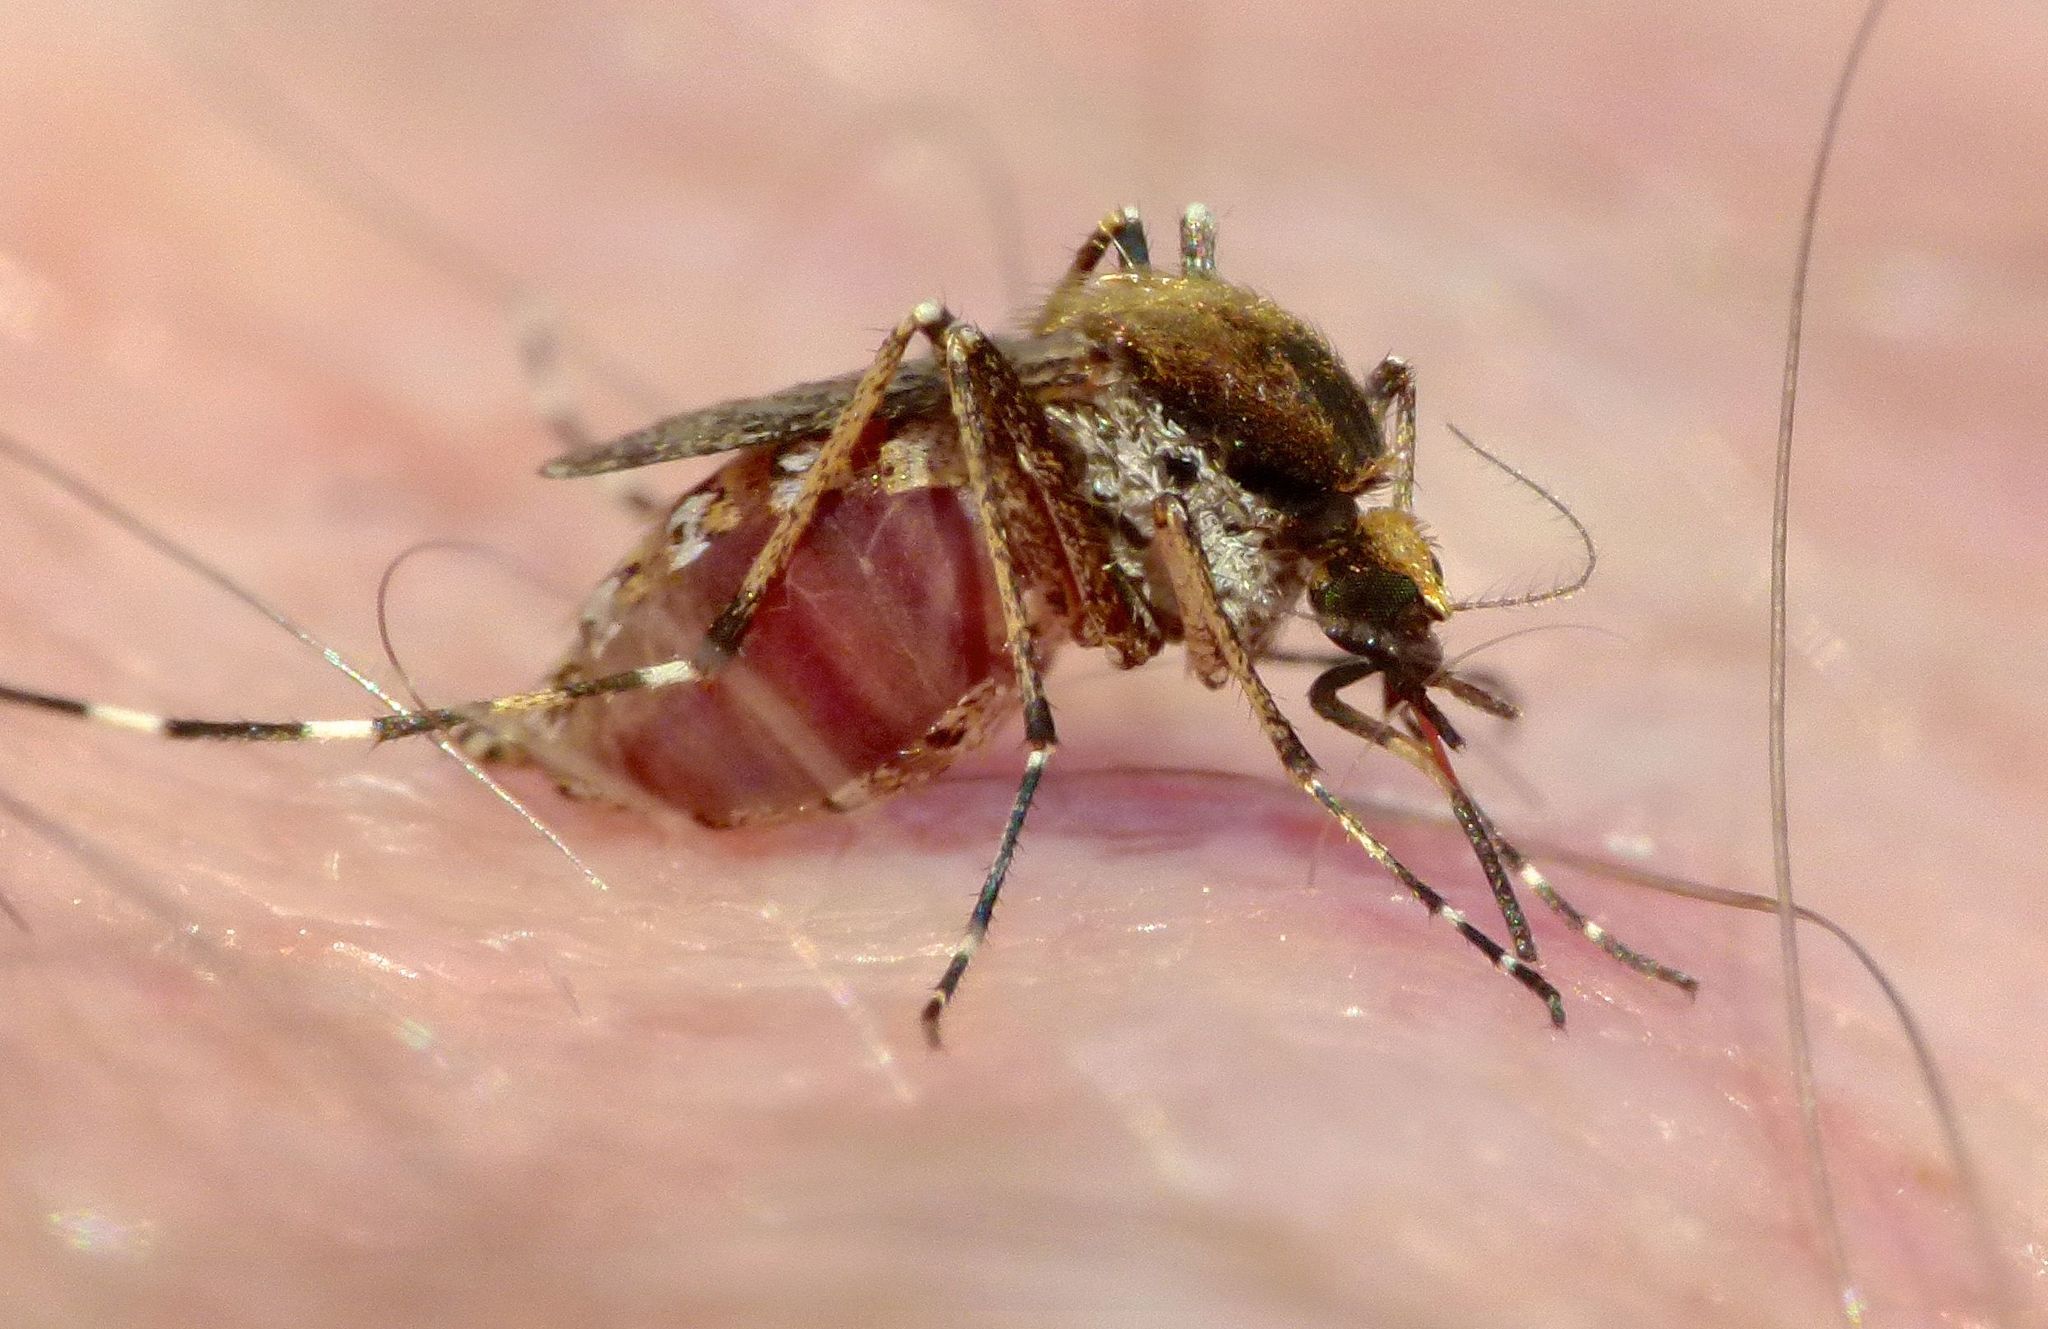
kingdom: Animalia
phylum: Arthropoda
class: Insecta
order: Diptera
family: Culicidae
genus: Aedes
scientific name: Aedes sollicitans
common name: Saltmarsh mosquito
